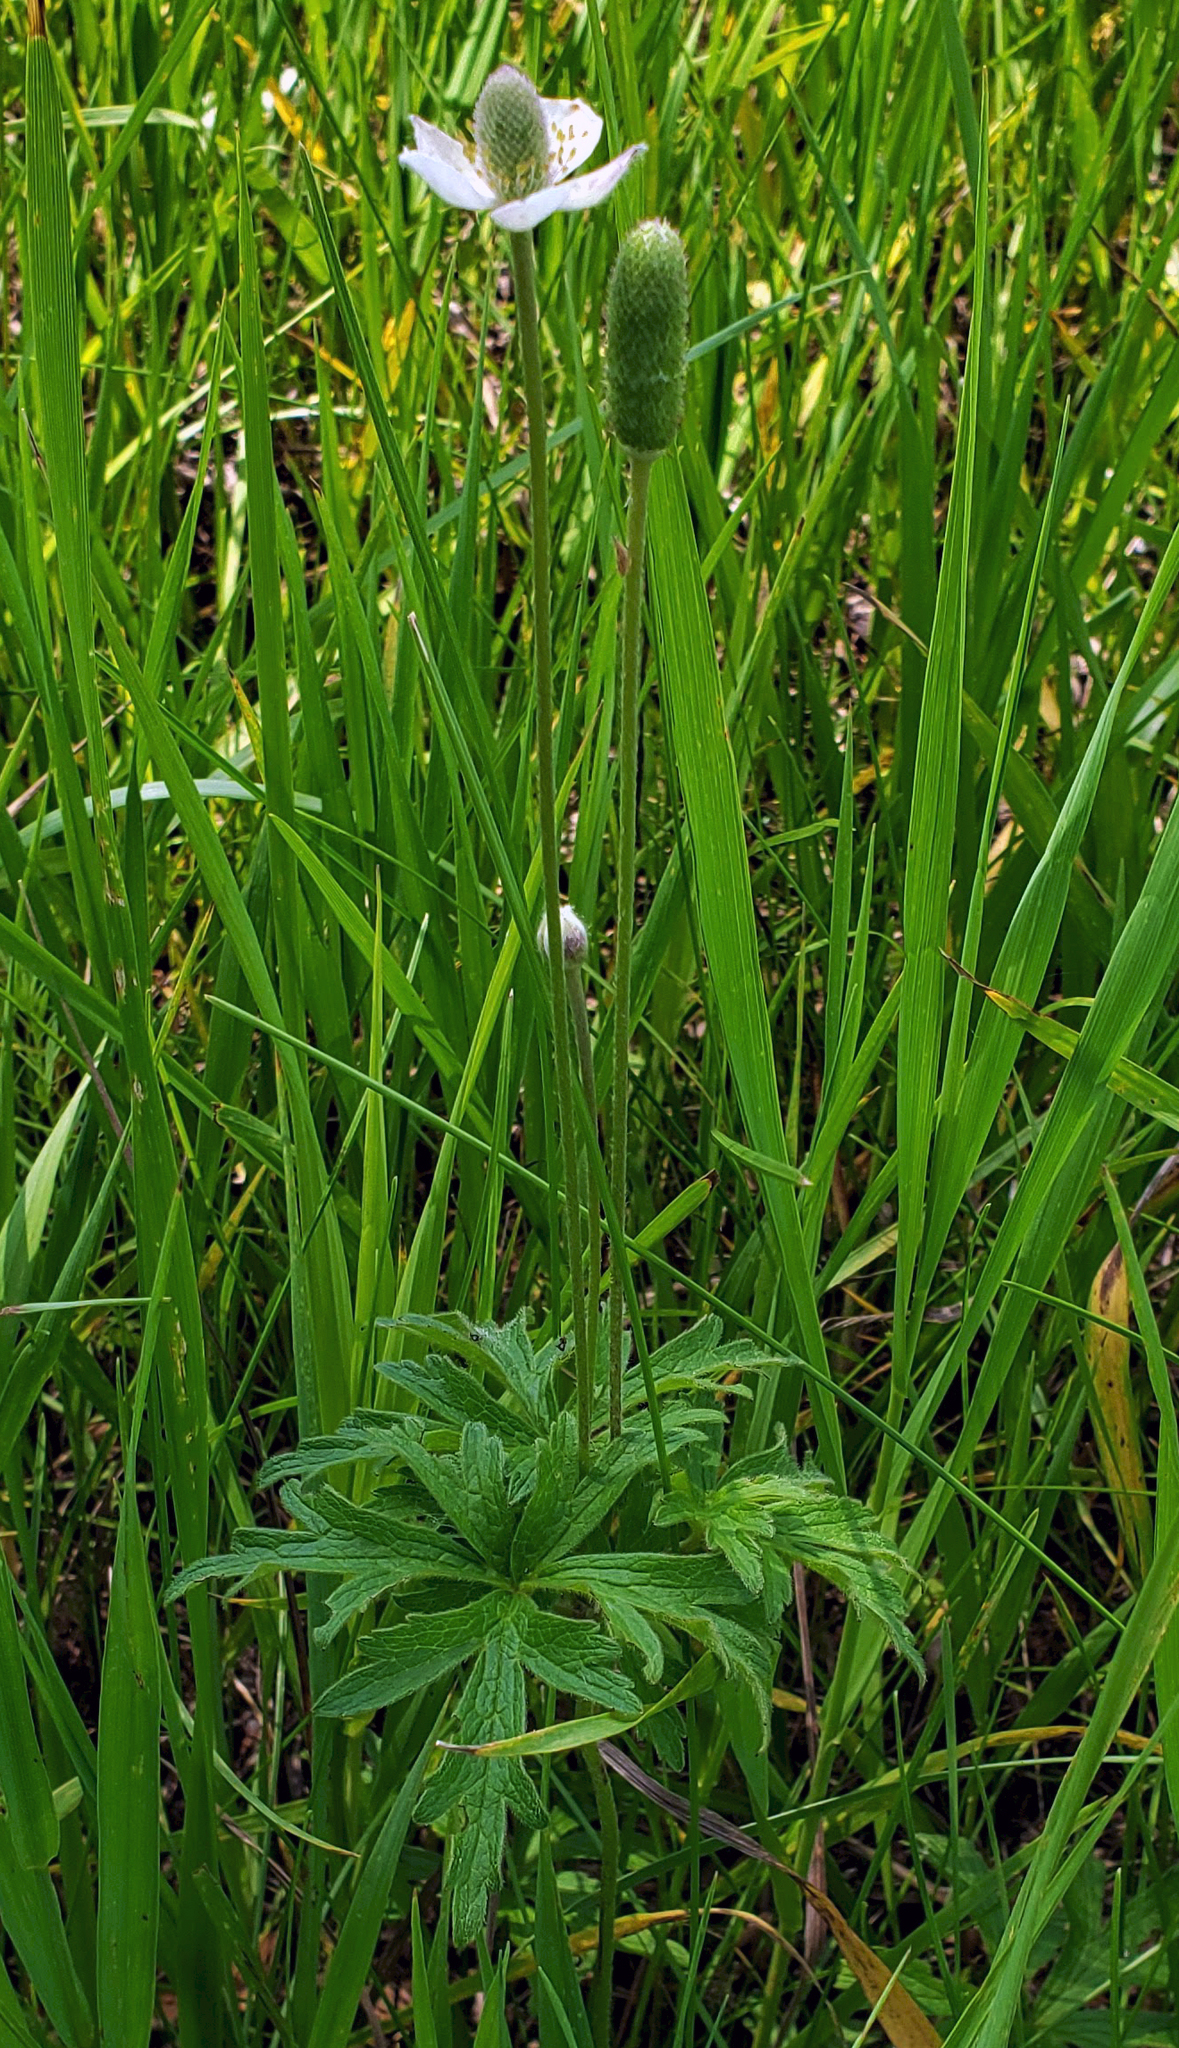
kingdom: Plantae
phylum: Tracheophyta
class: Magnoliopsida
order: Ranunculales
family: Ranunculaceae
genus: Anemone
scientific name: Anemone cylindrica
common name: Candle anemone
